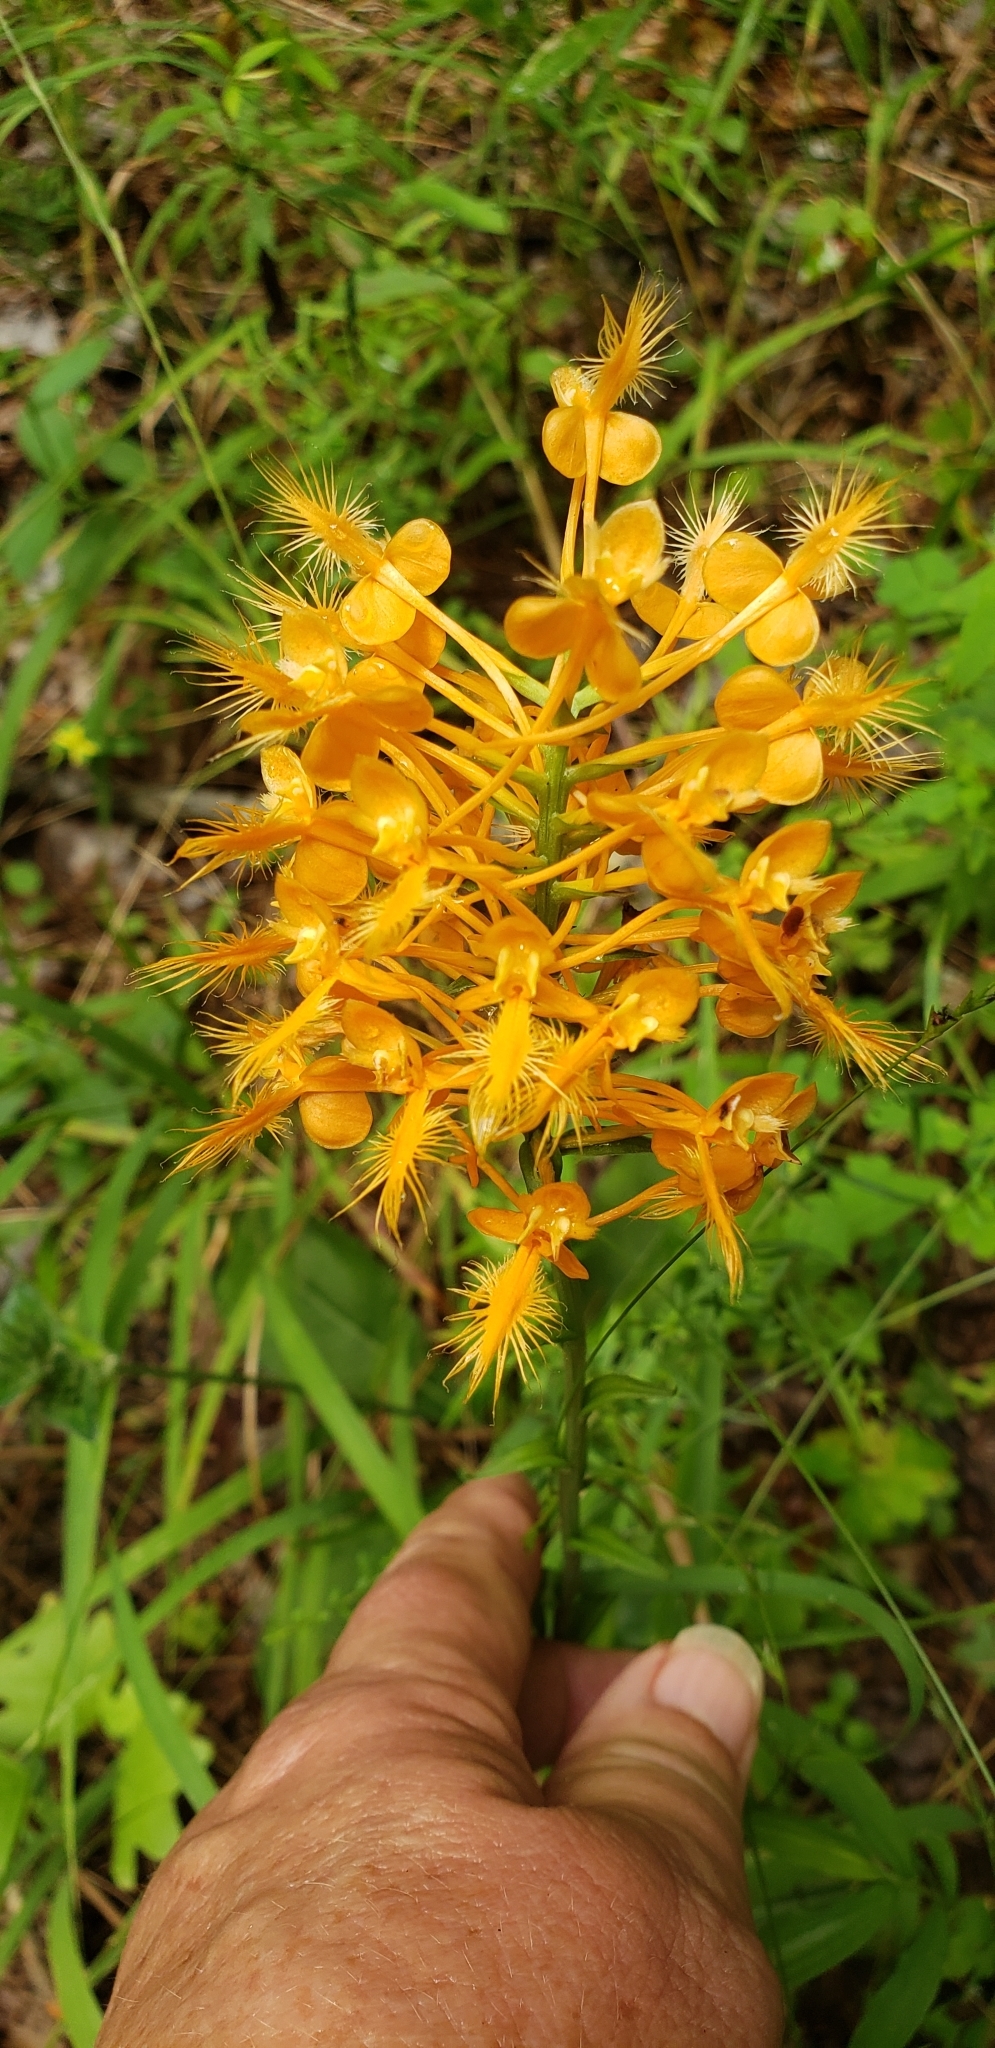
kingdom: Plantae
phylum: Tracheophyta
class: Liliopsida
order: Asparagales
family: Orchidaceae
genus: Platanthera
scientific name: Platanthera ciliaris
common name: Yellow fringed orchid
